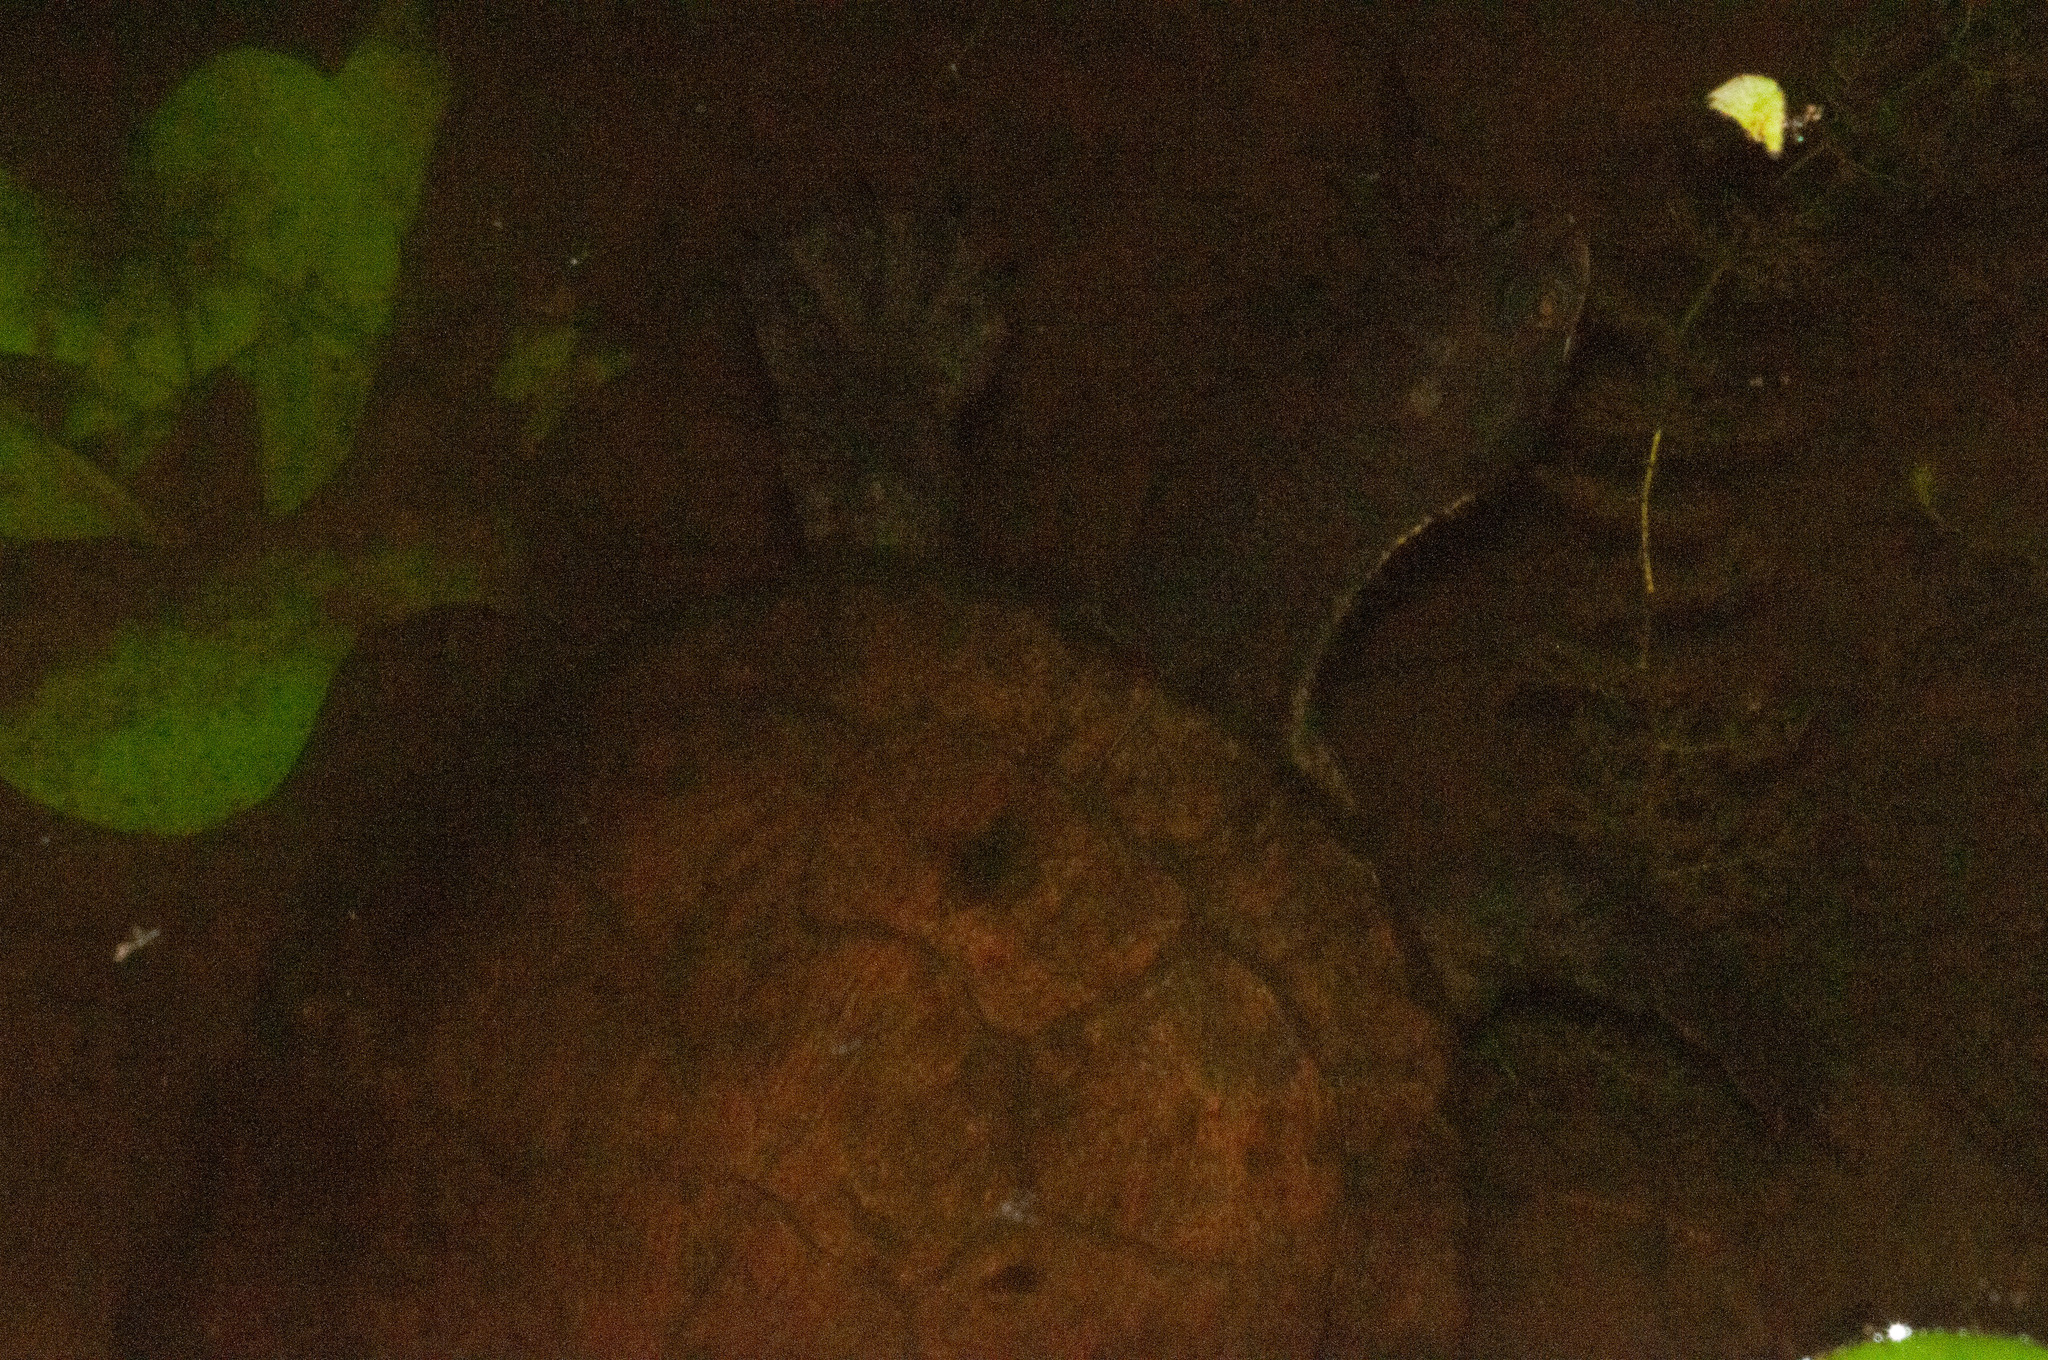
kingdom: Animalia
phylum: Chordata
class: Testudines
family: Chelidae
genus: Emydura
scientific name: Emydura macquarii
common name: Murray river turtle
